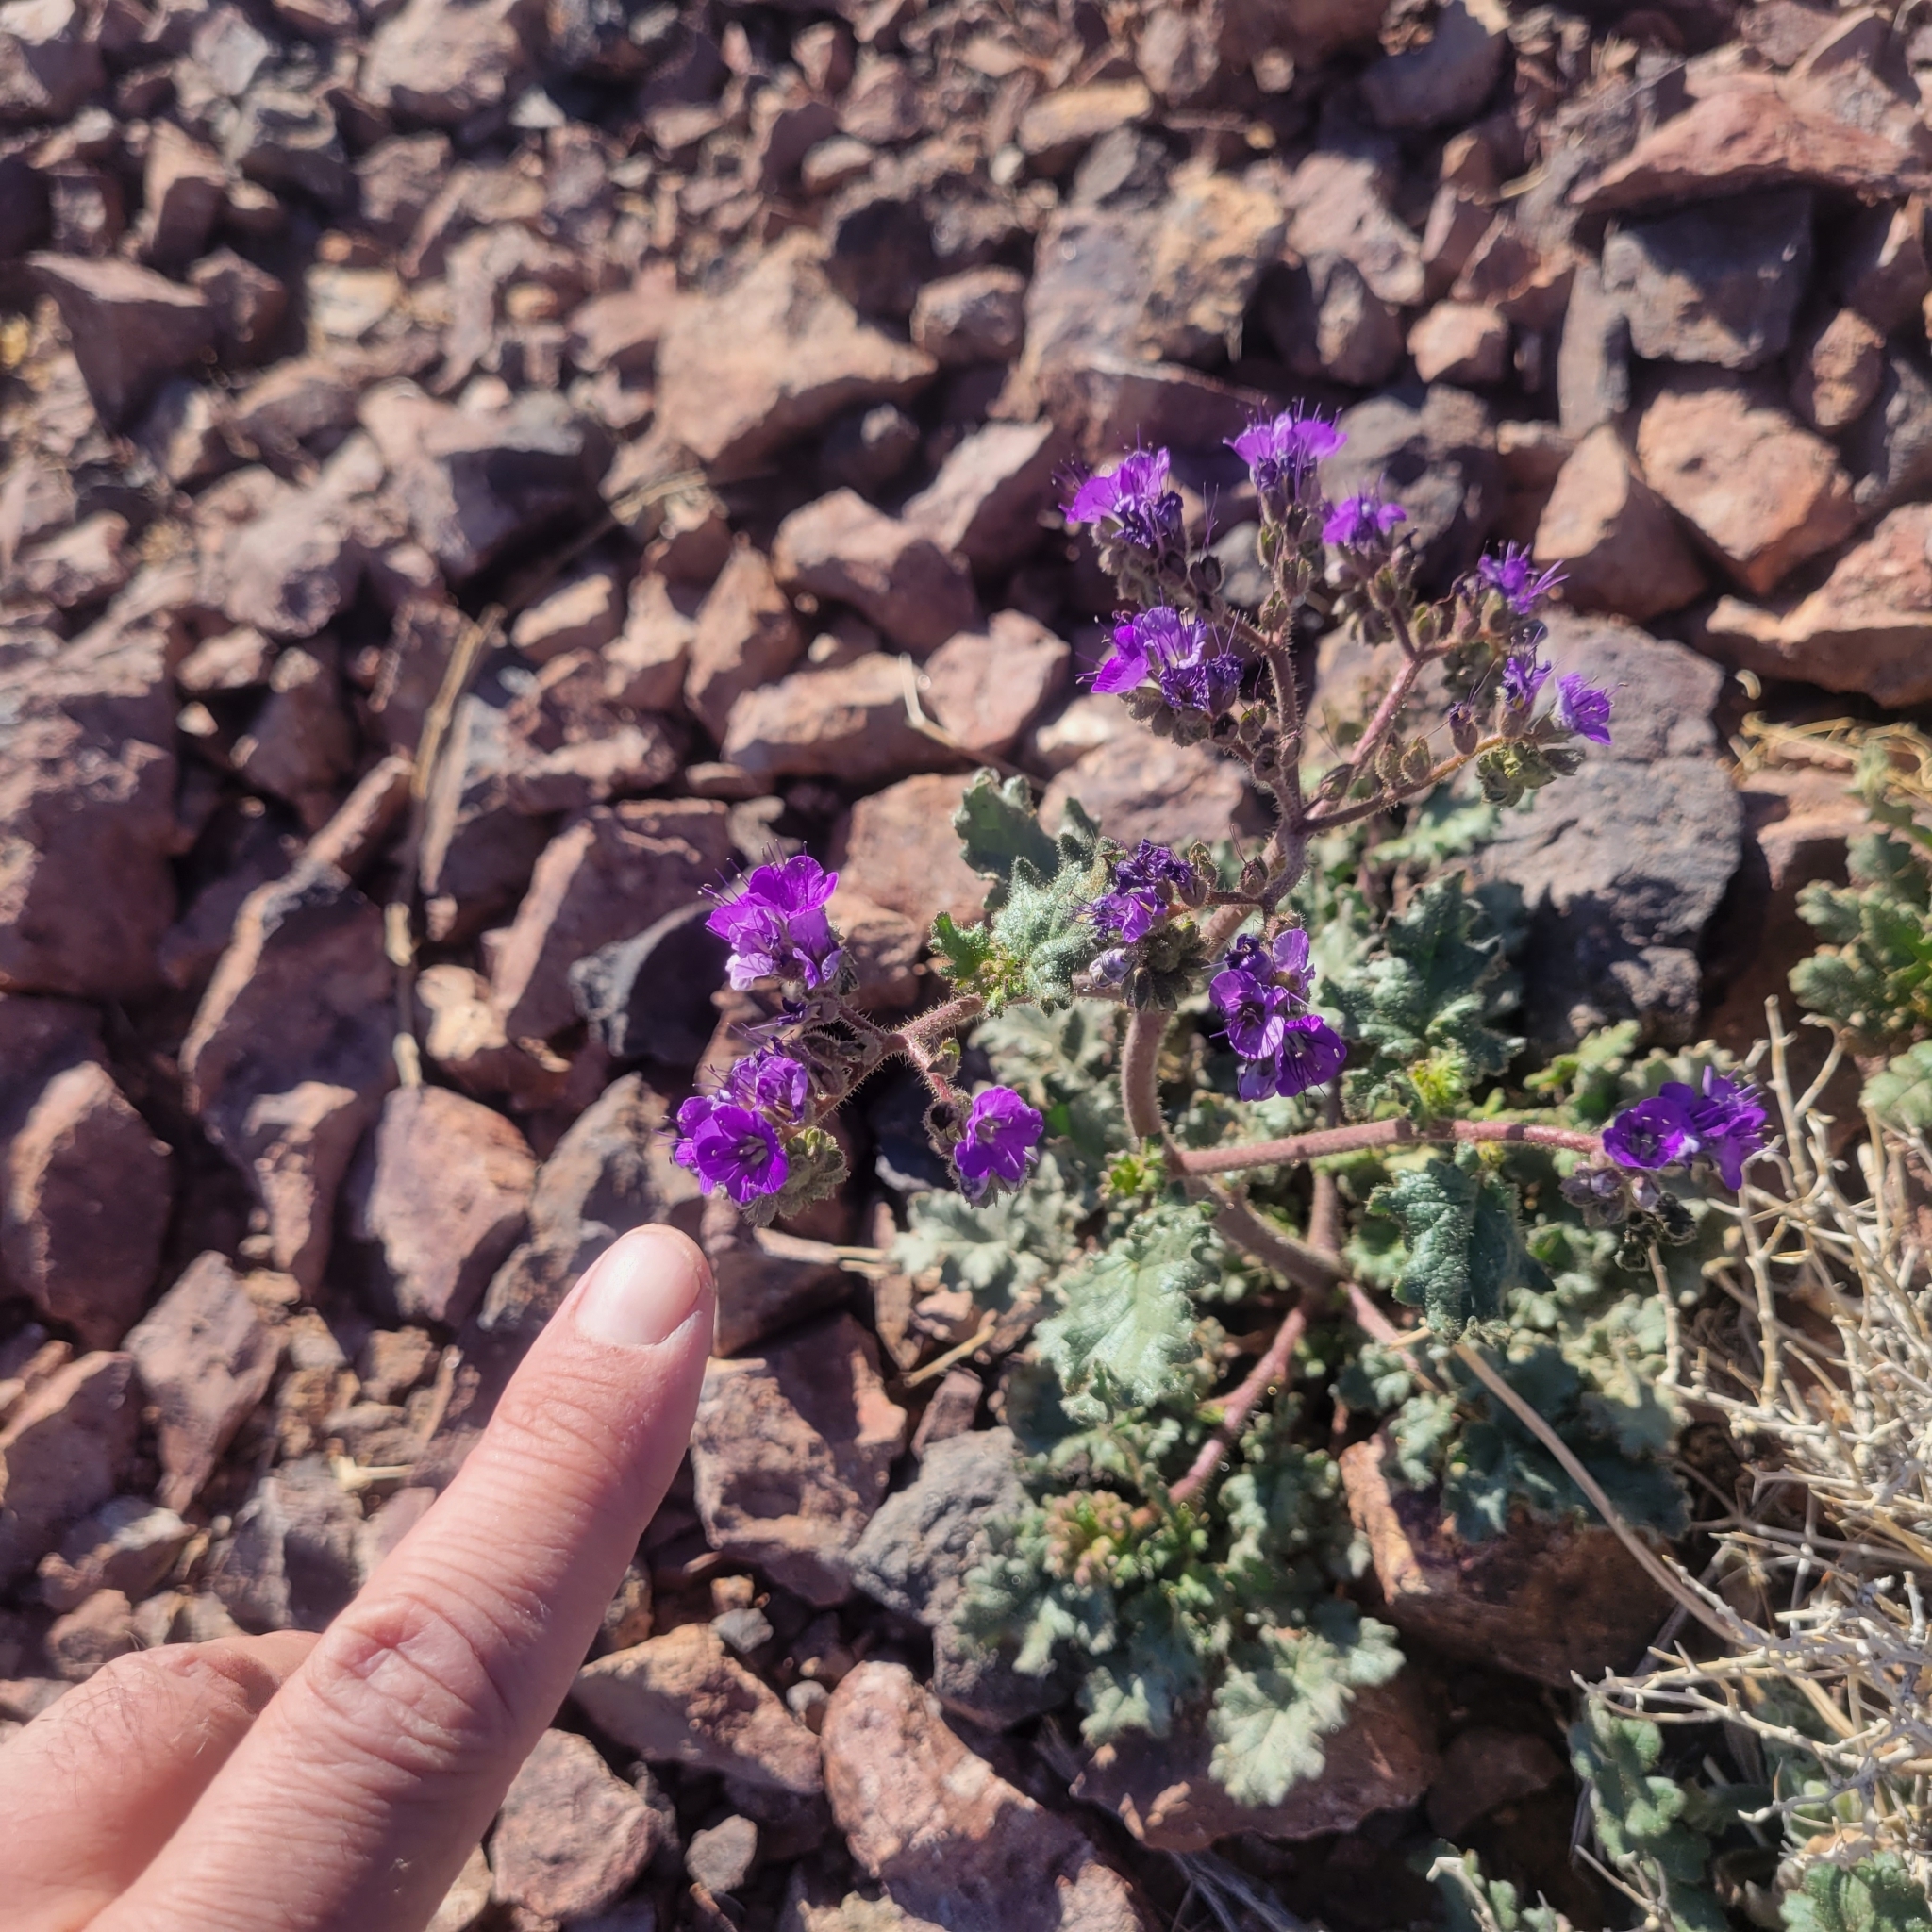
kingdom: Plantae
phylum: Tracheophyta
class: Magnoliopsida
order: Boraginales
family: Hydrophyllaceae
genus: Phacelia
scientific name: Phacelia crenulata
